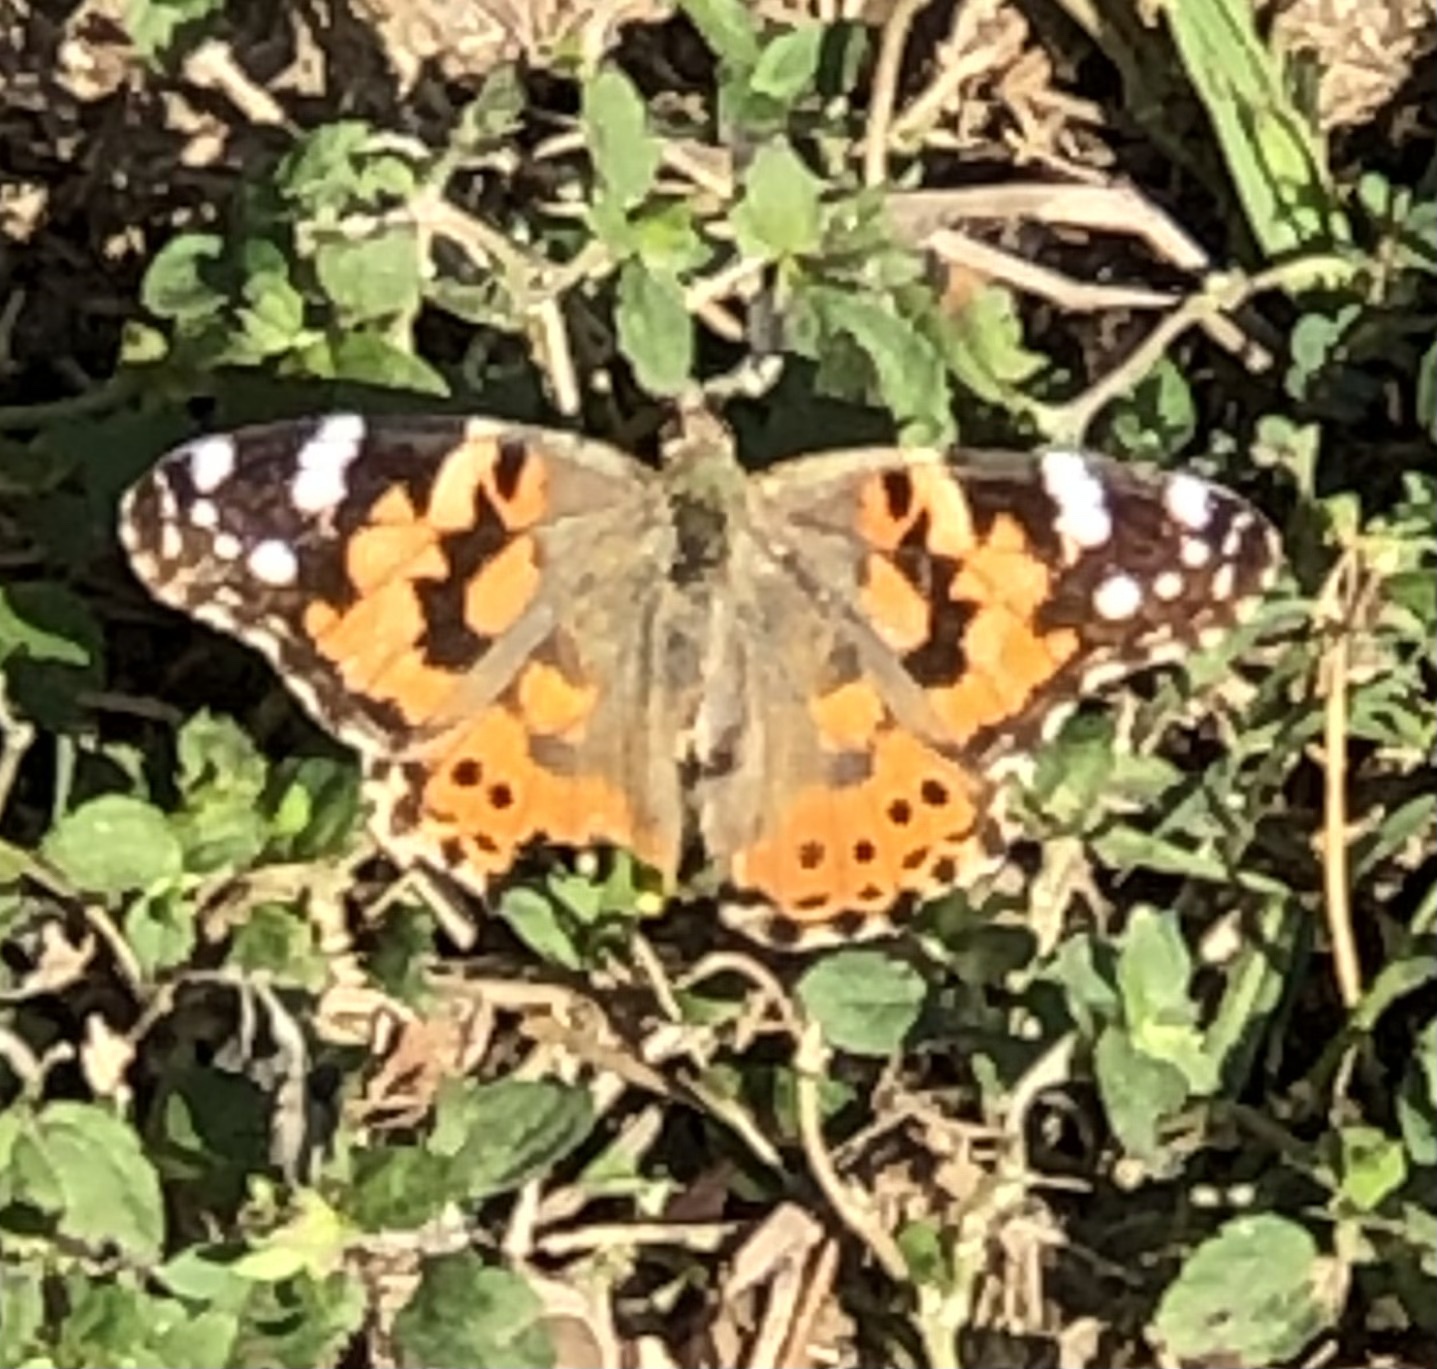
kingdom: Animalia
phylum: Arthropoda
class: Insecta
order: Lepidoptera
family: Nymphalidae
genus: Vanessa
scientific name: Vanessa cardui
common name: Painted lady
